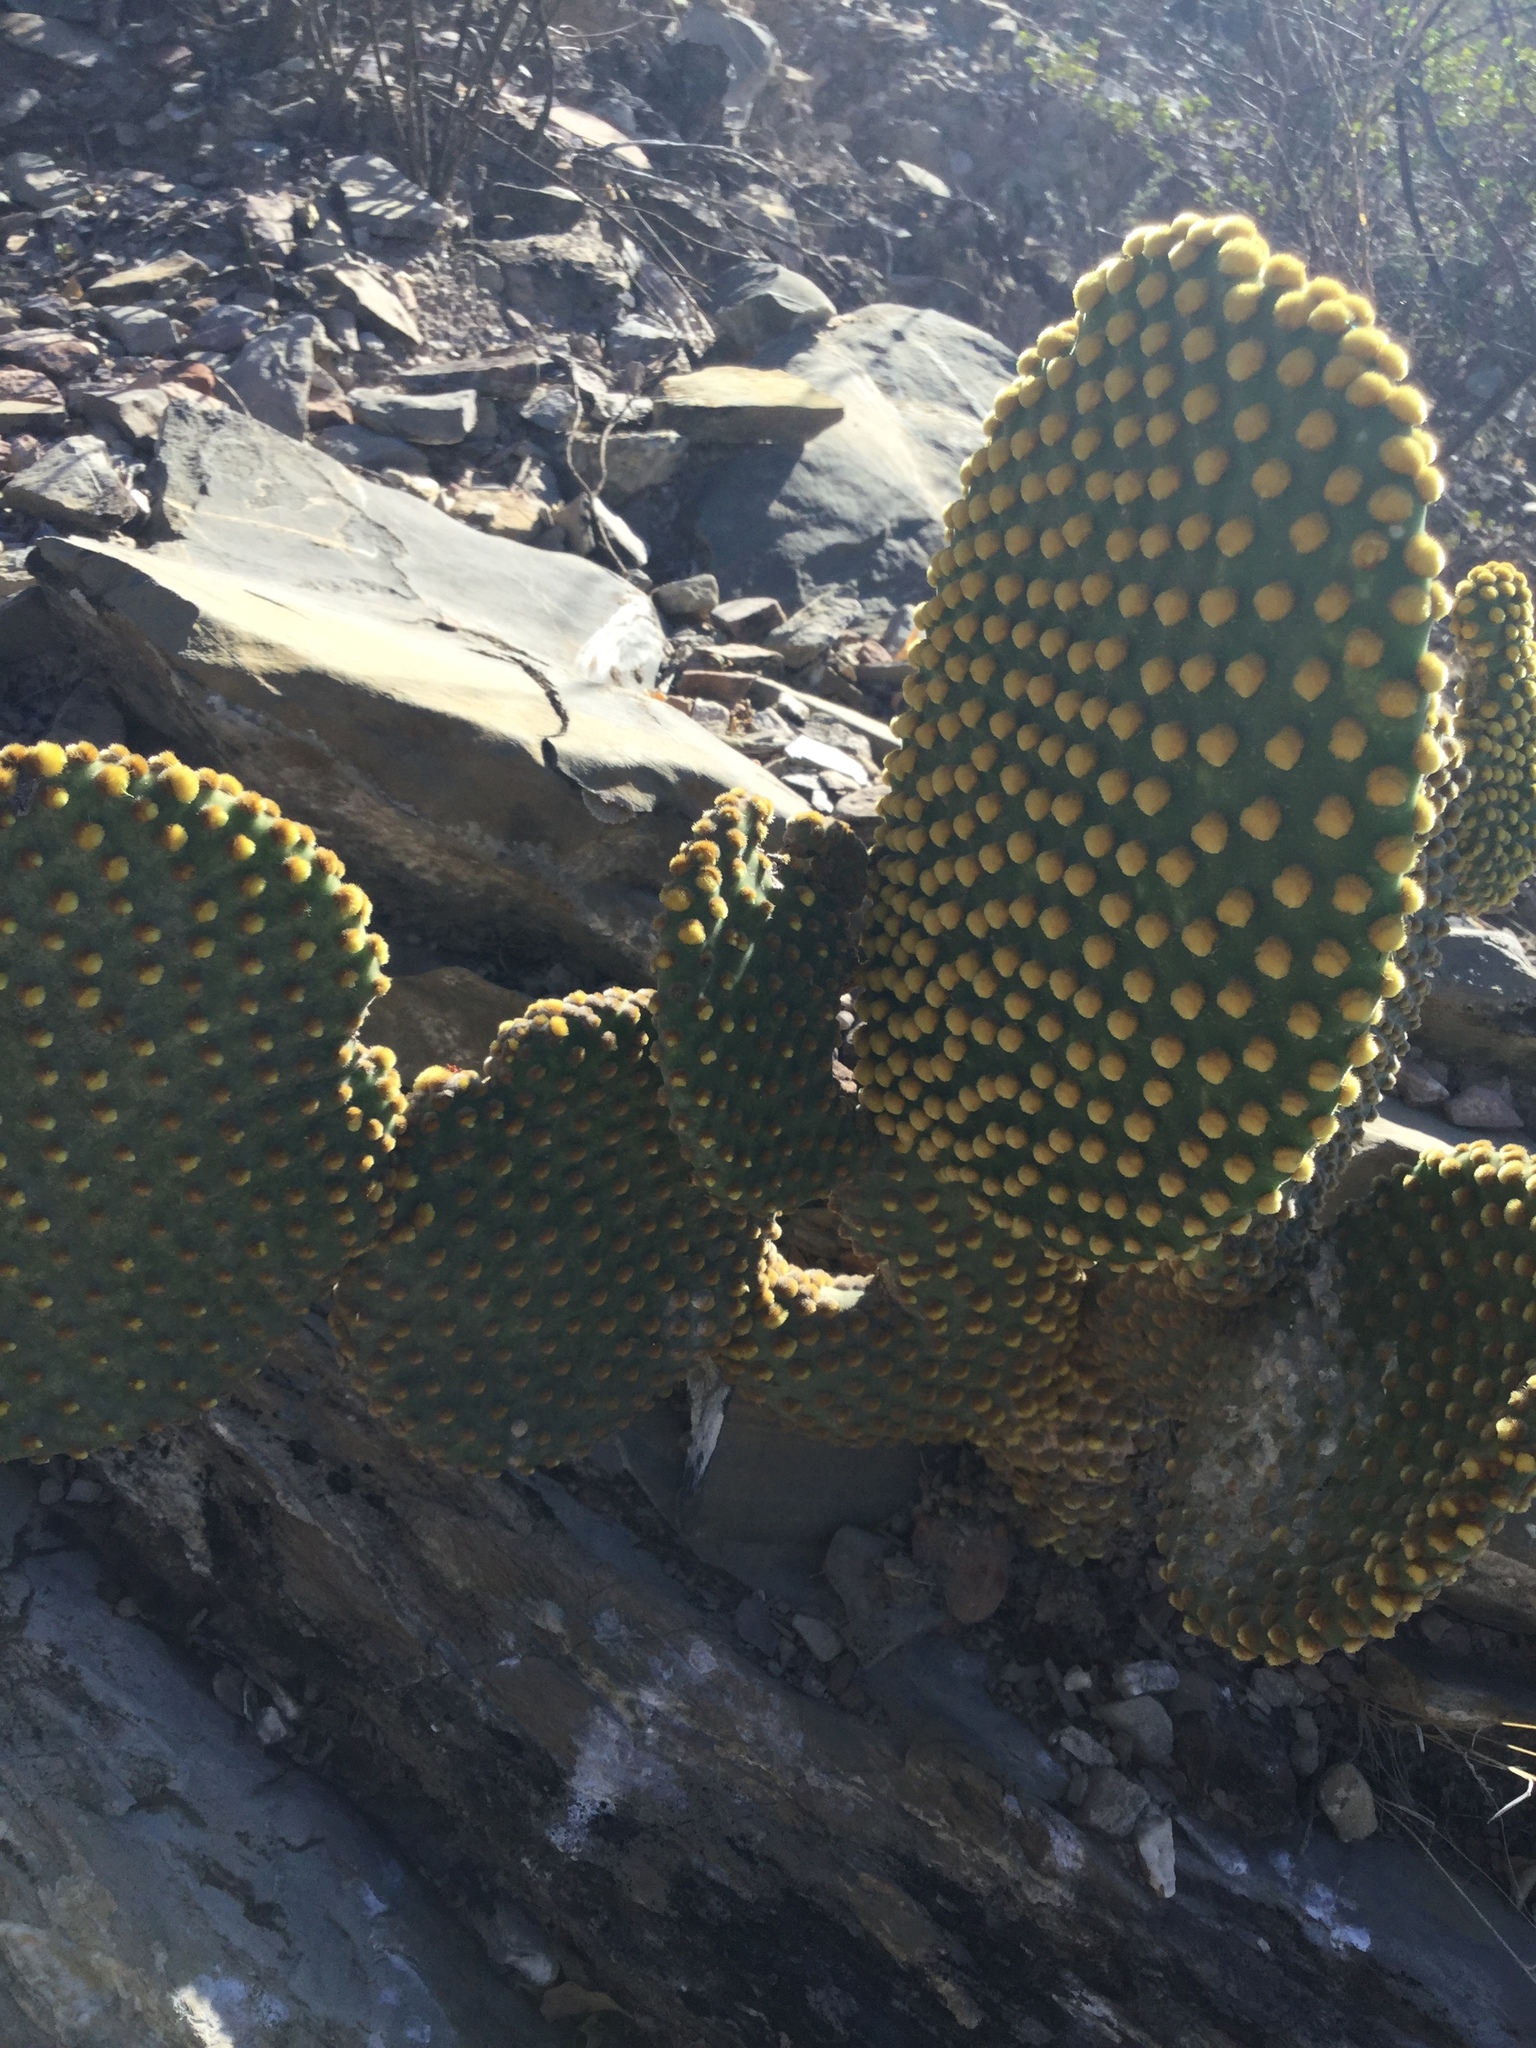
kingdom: Plantae
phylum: Tracheophyta
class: Magnoliopsida
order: Caryophyllales
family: Cactaceae
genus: Opuntia
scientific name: Opuntia microdasys
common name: Angel's-wings
